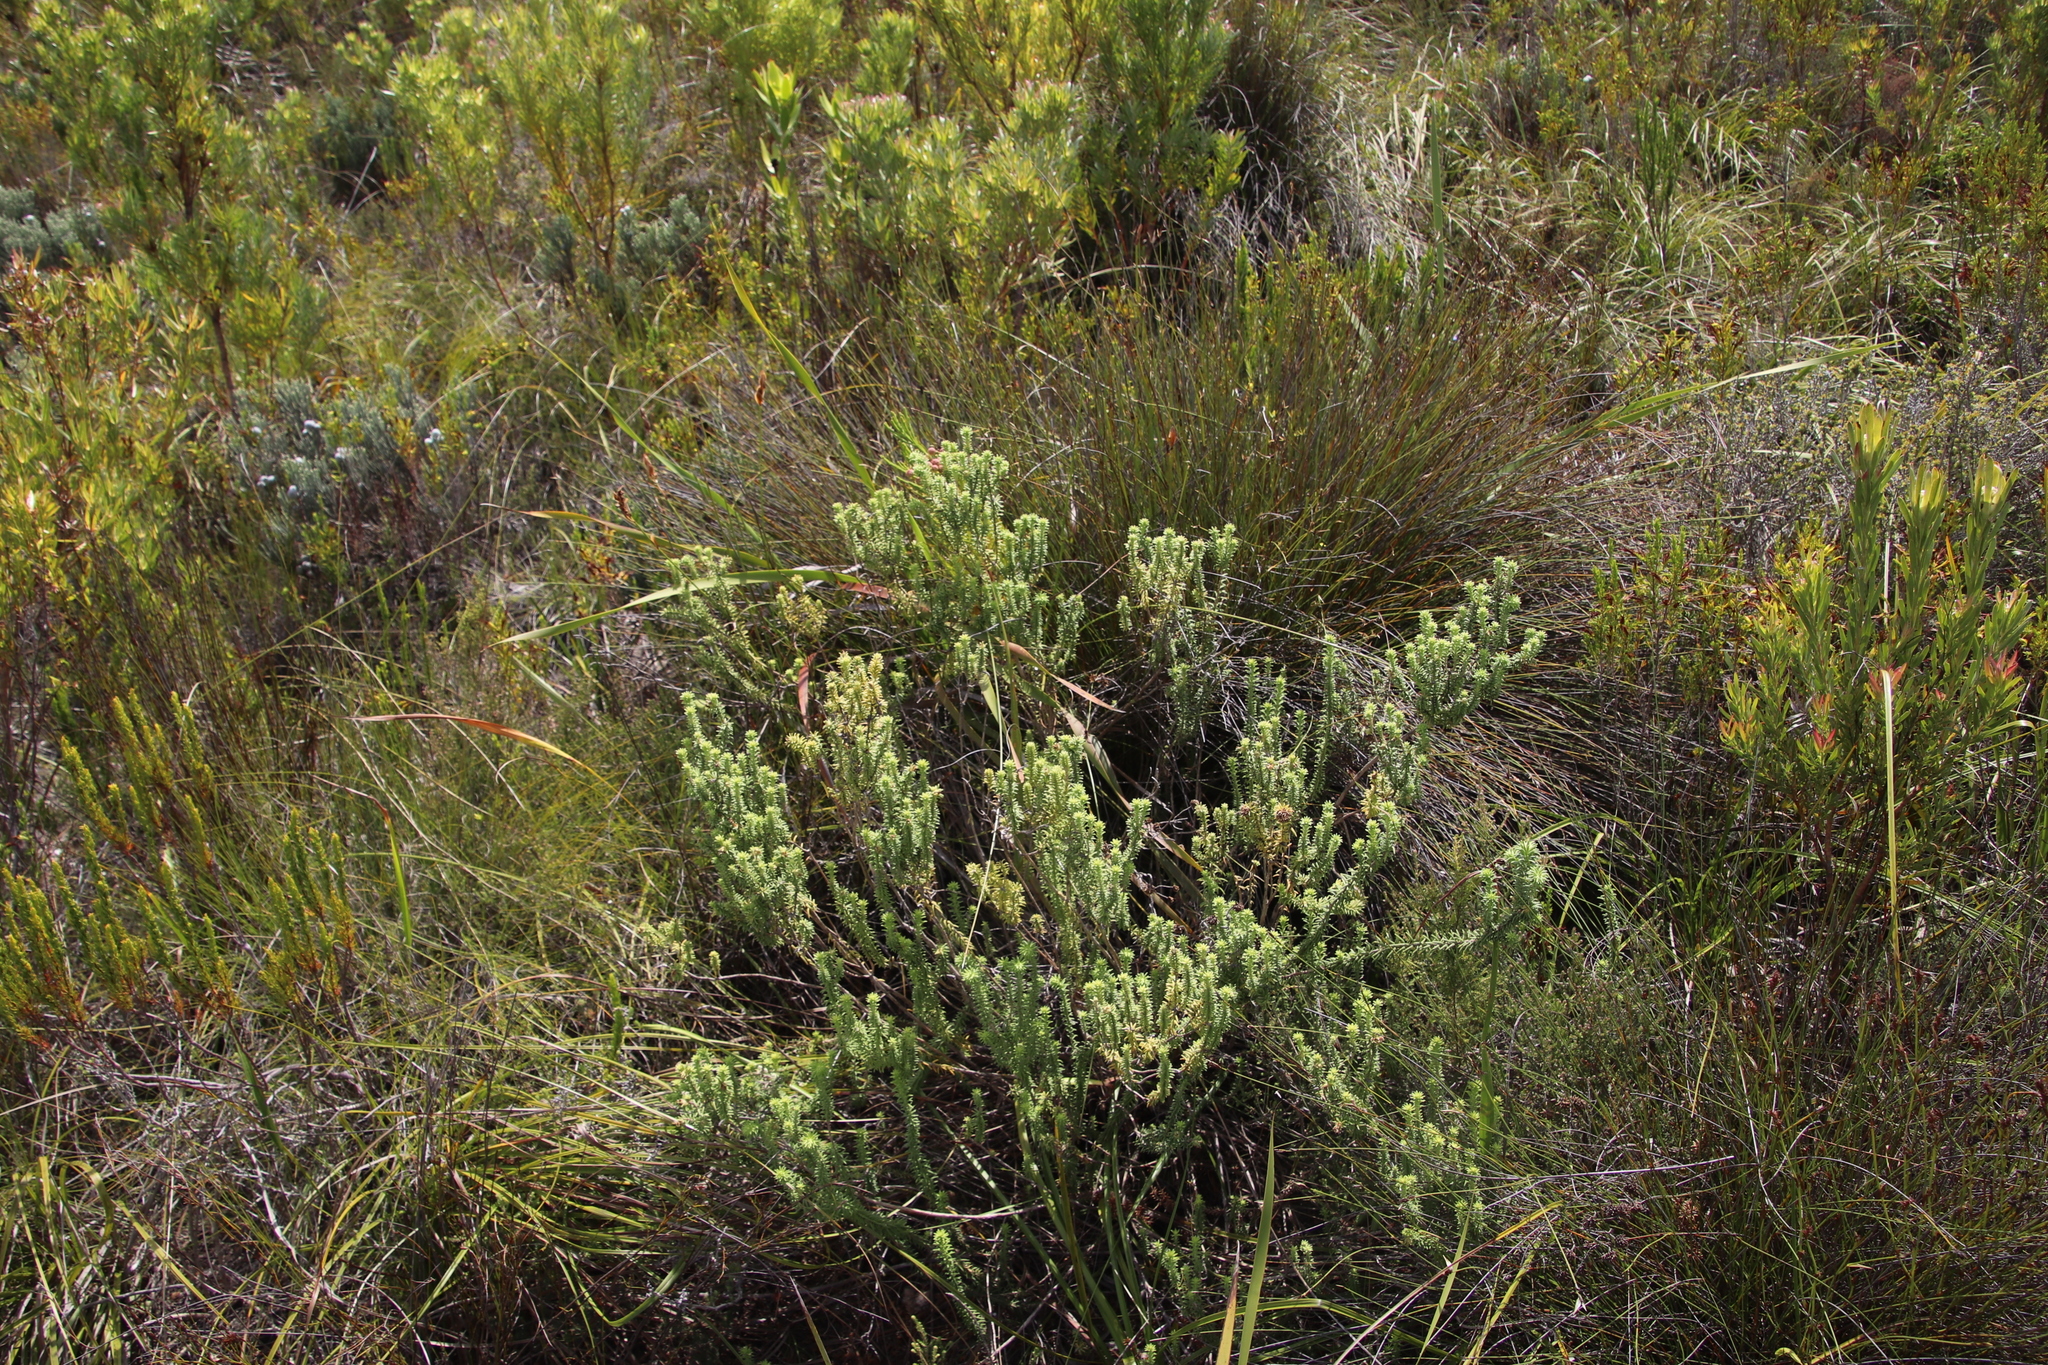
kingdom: Plantae
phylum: Tracheophyta
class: Magnoliopsida
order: Lamiales
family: Stilbaceae
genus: Campylostachys
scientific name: Campylostachys cernua
